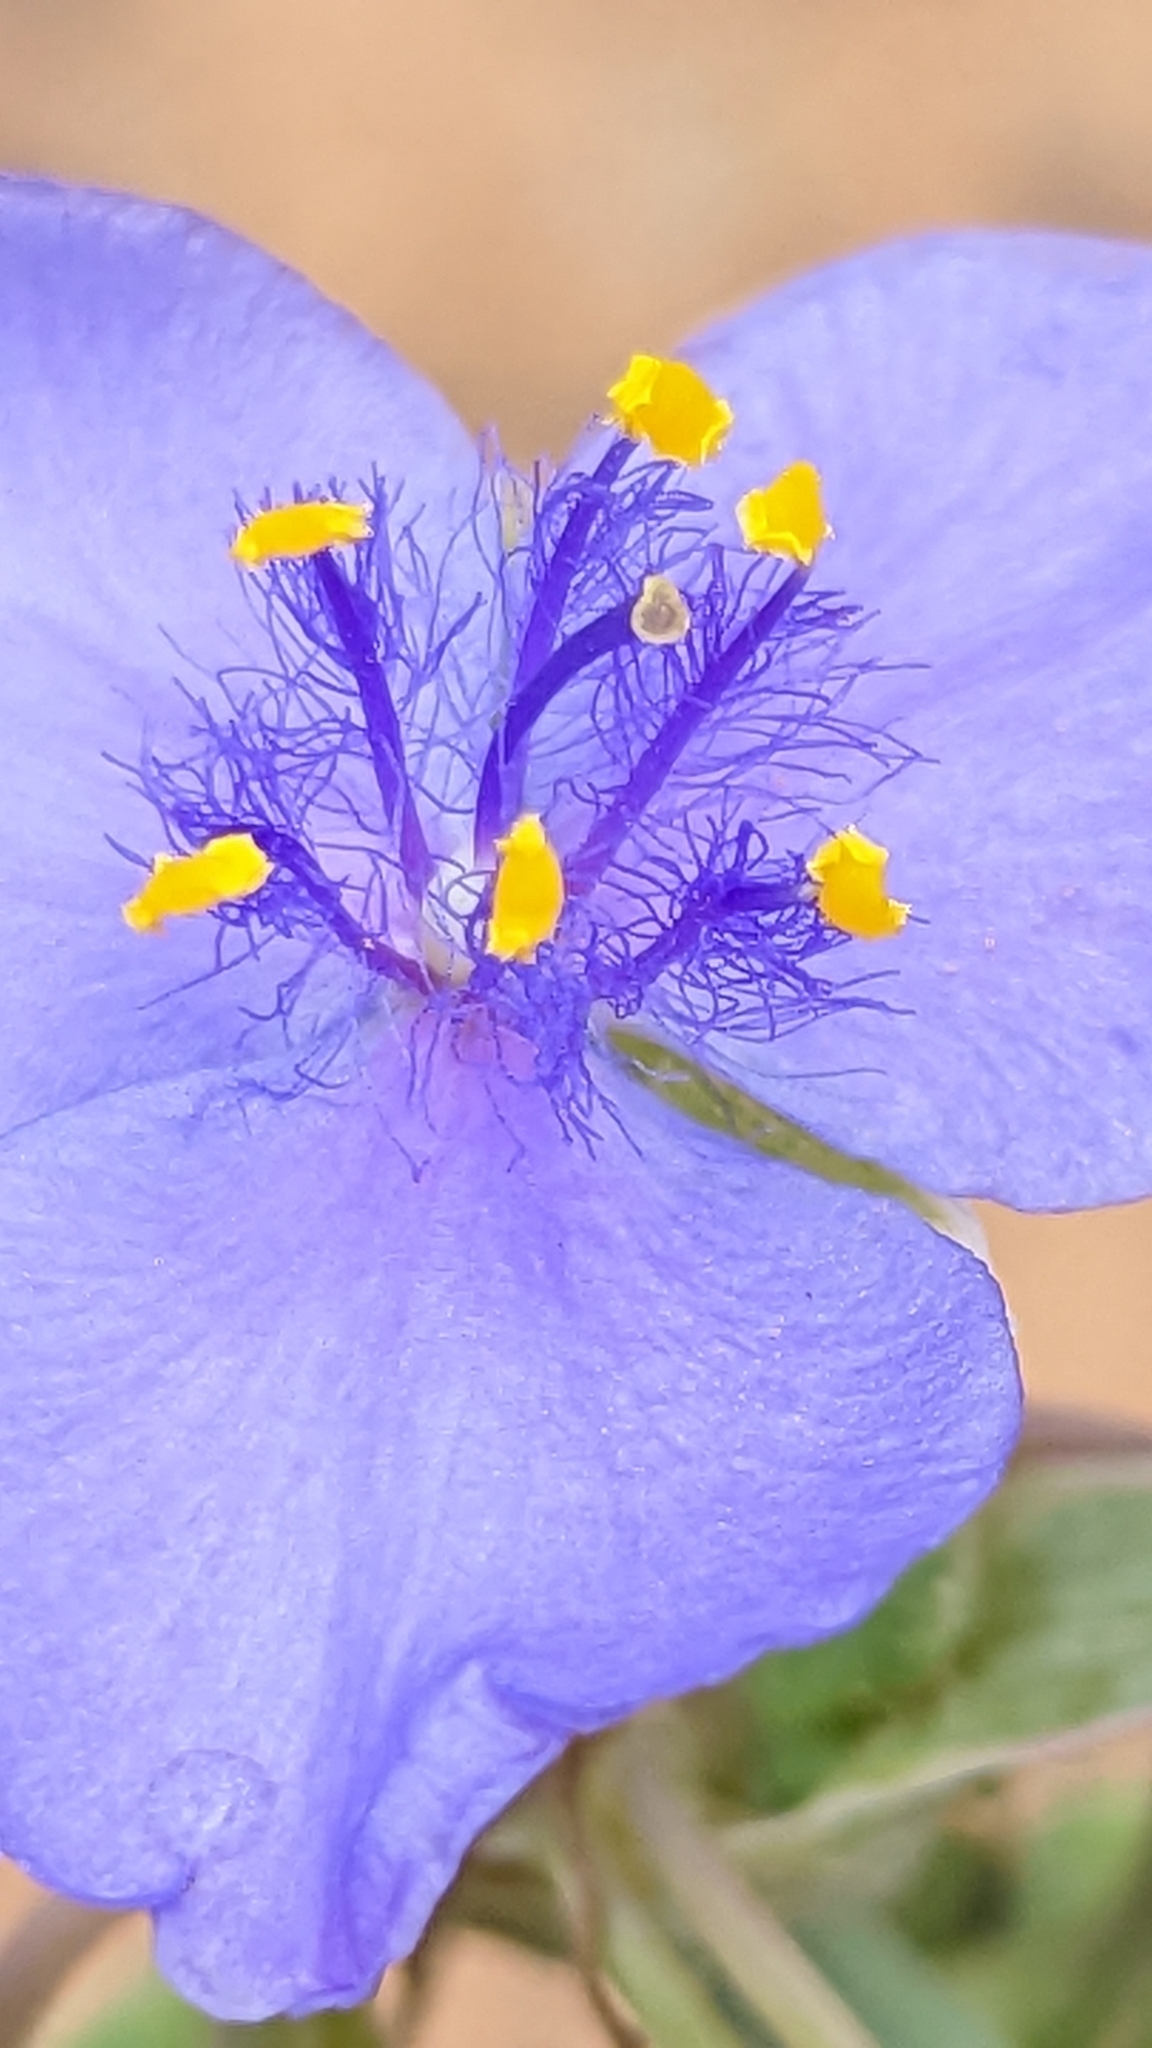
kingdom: Plantae
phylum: Tracheophyta
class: Liliopsida
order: Commelinales
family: Commelinaceae
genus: Tradescantia
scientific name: Tradescantia occidentalis
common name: Prairie spiderwort
